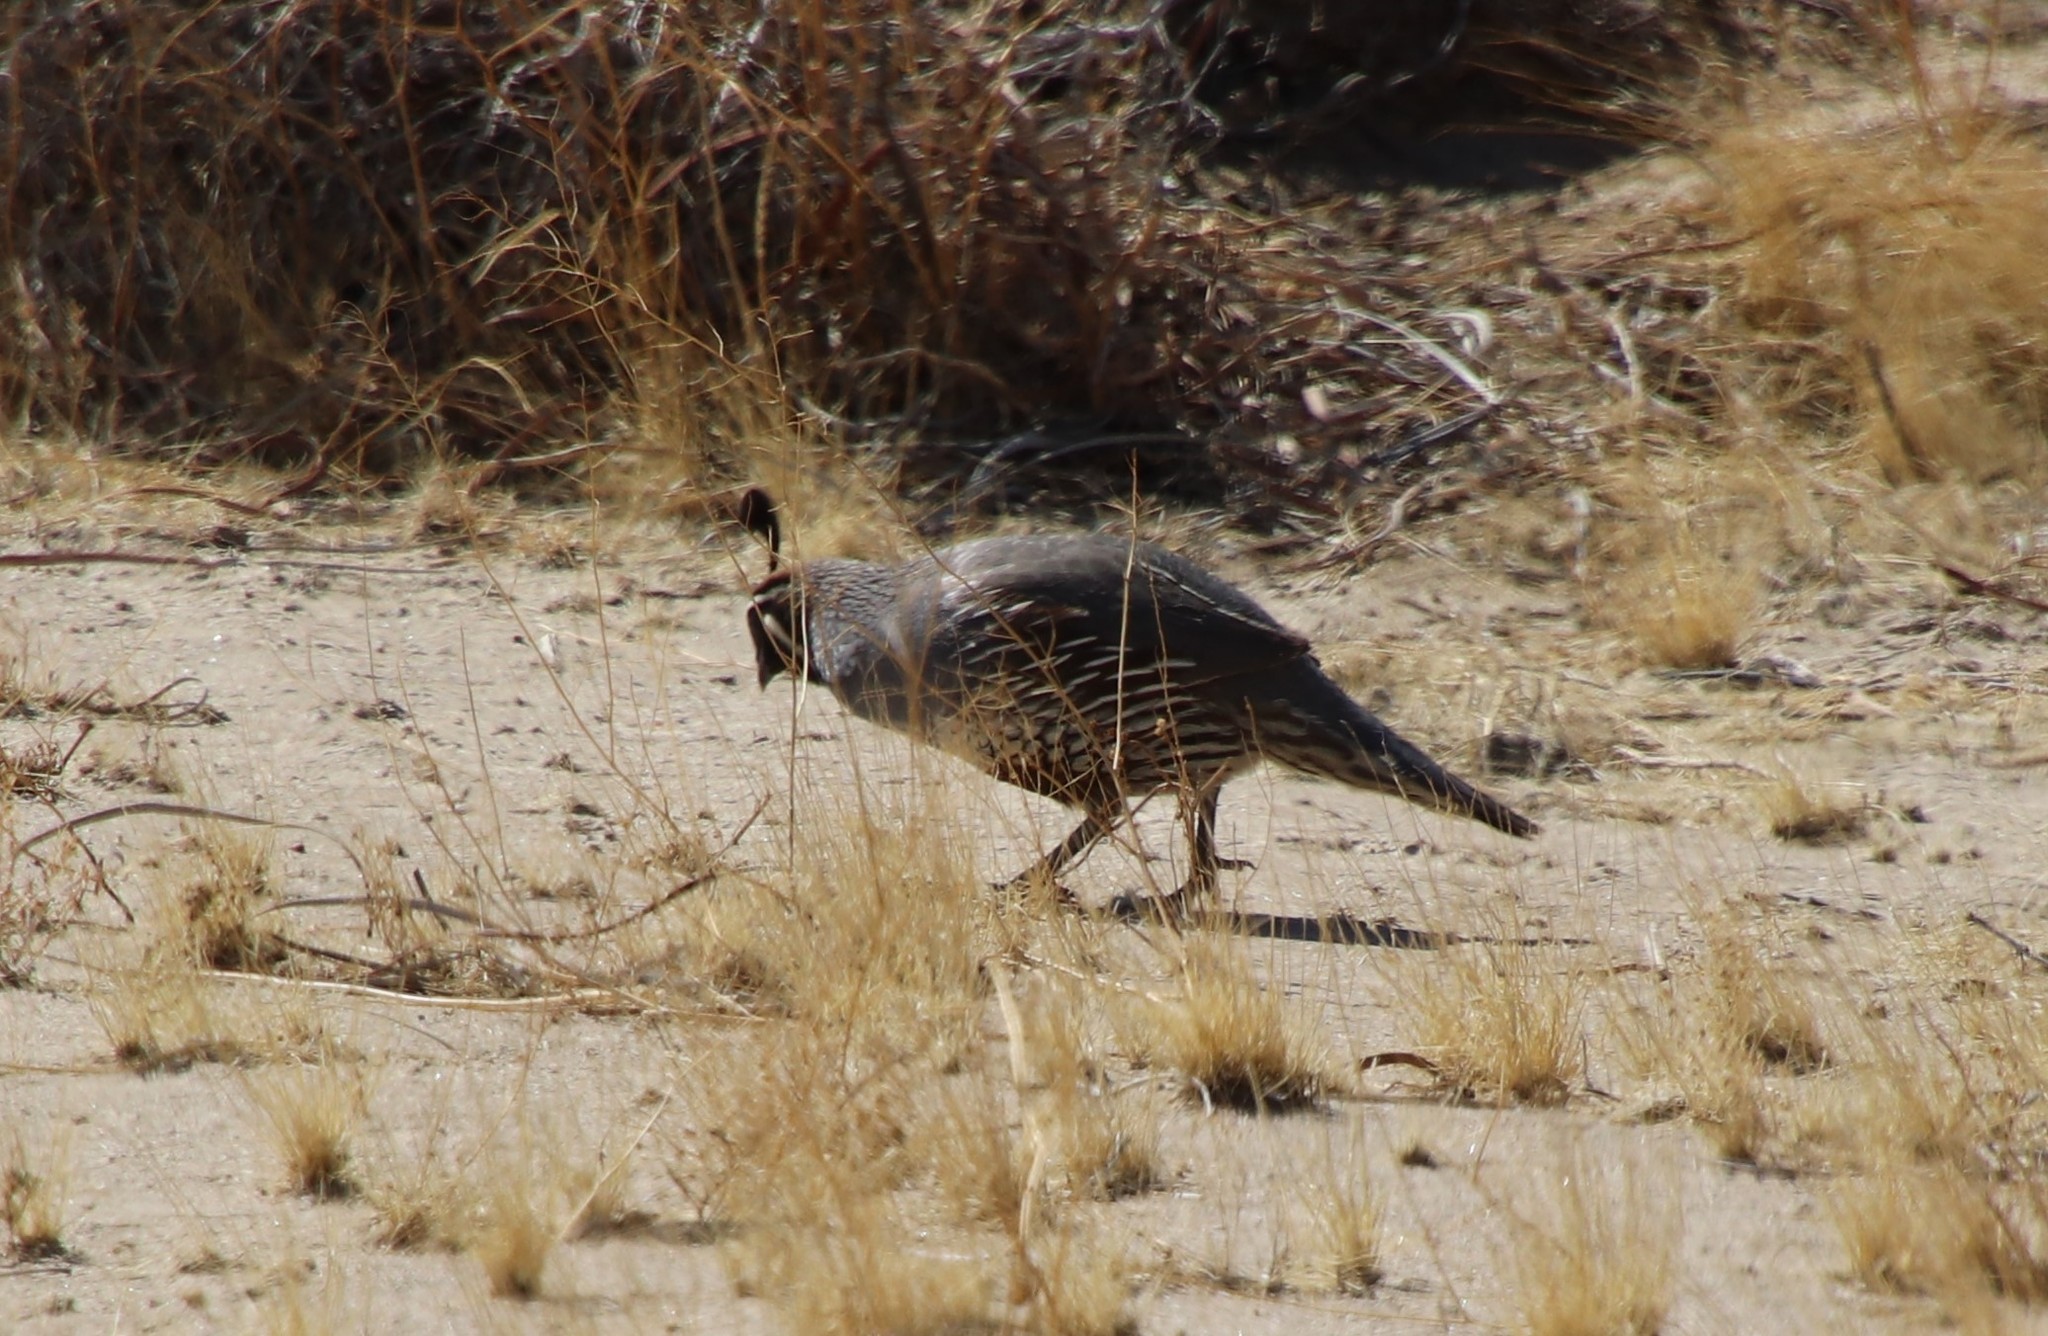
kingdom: Animalia
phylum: Chordata
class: Aves
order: Galliformes
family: Odontophoridae
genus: Callipepla
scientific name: Callipepla californica
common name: California quail
